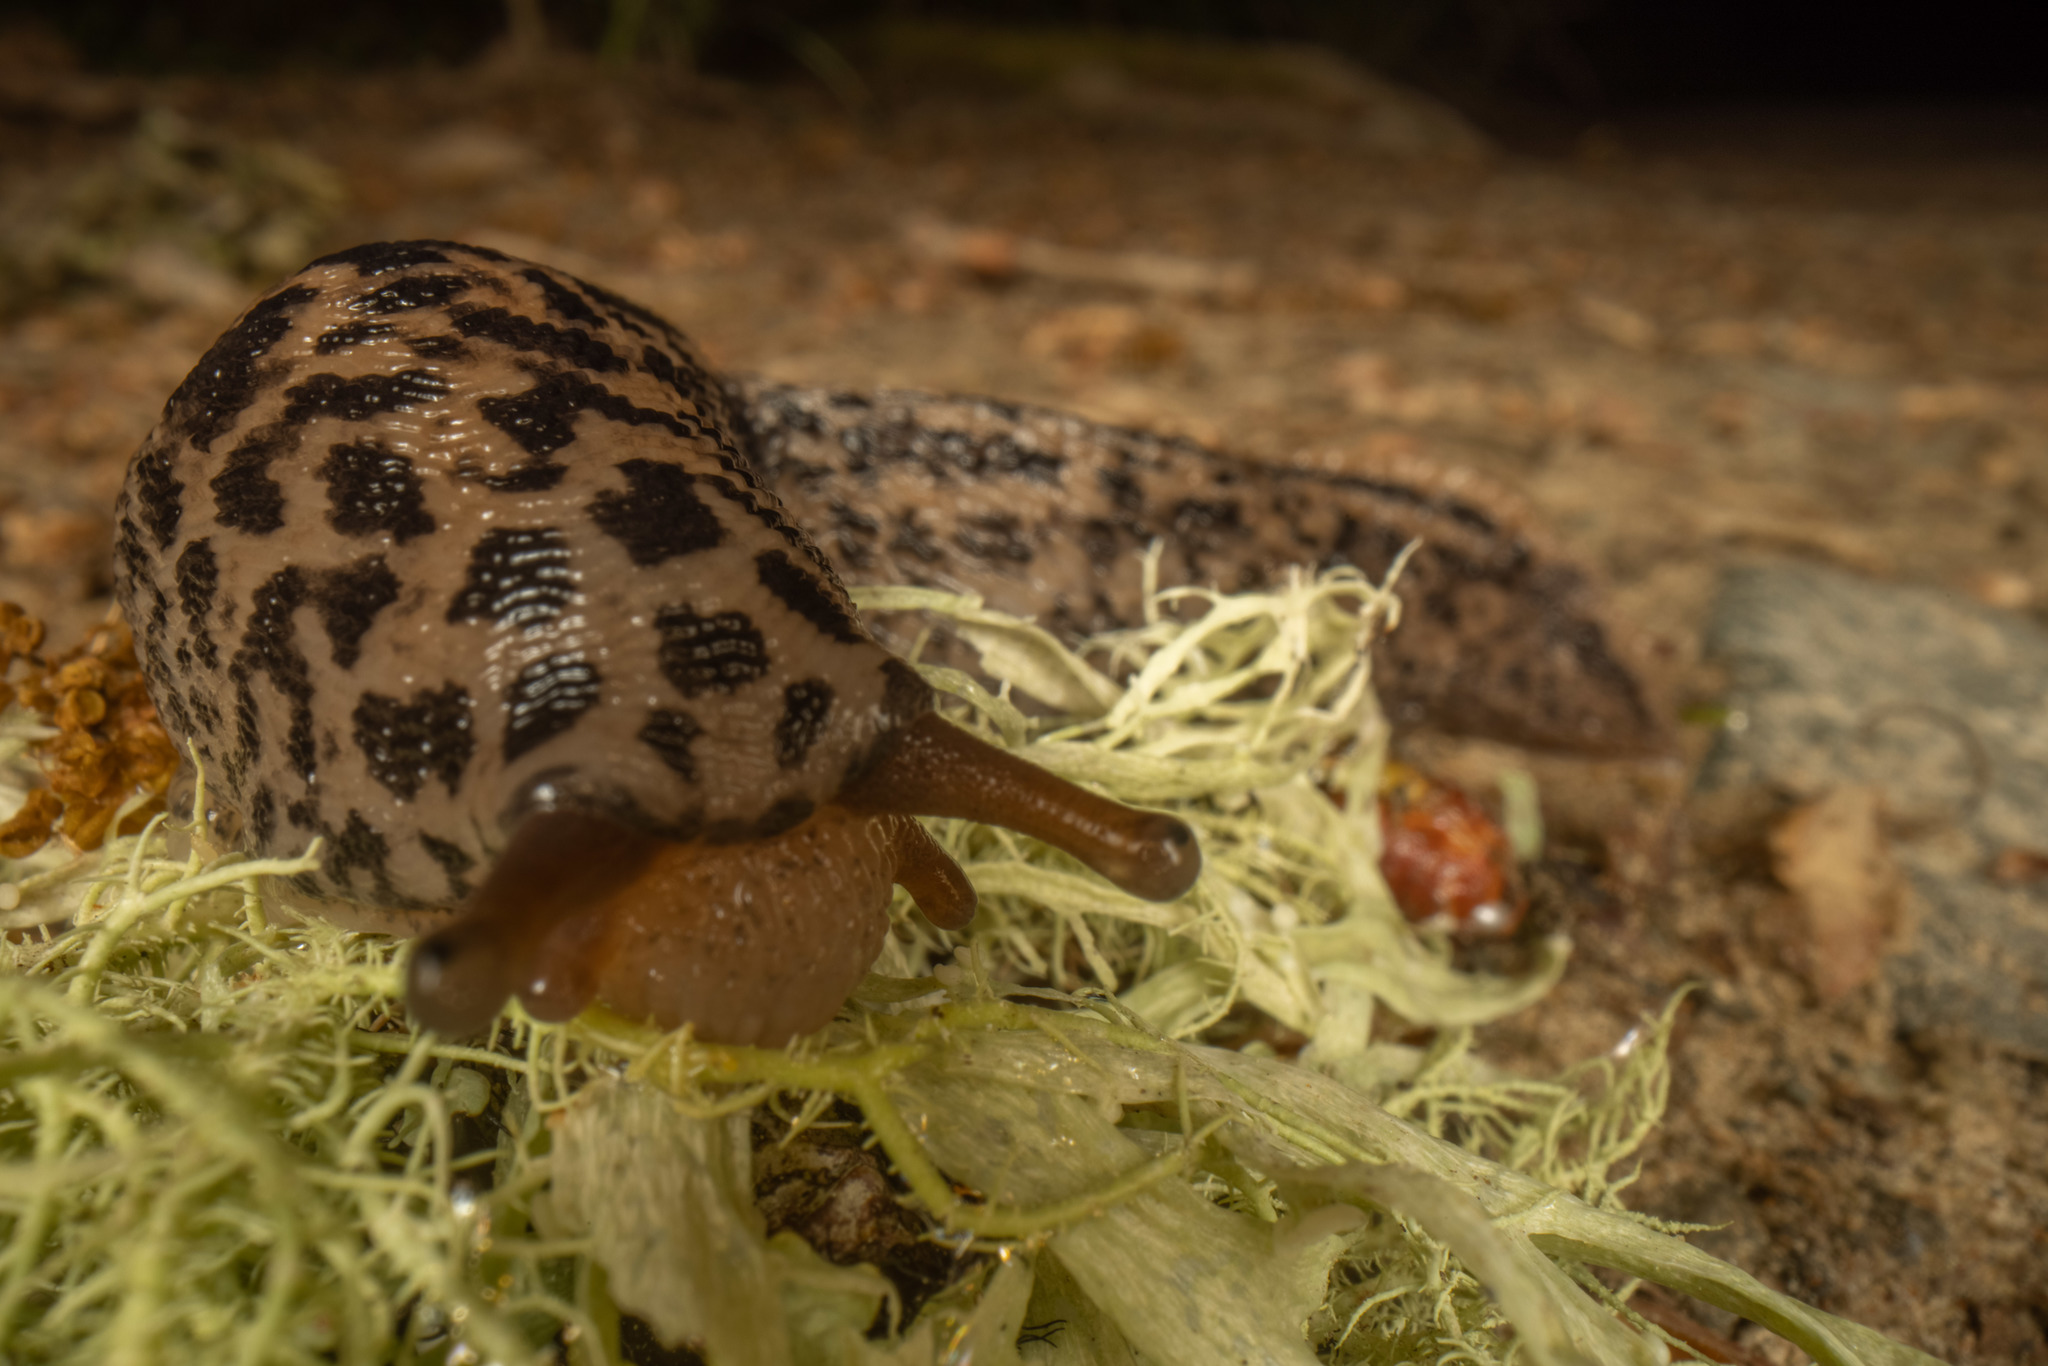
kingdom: Animalia
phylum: Mollusca
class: Gastropoda
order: Stylommatophora
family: Limacidae
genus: Limax
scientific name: Limax maximus
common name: Great grey slug
